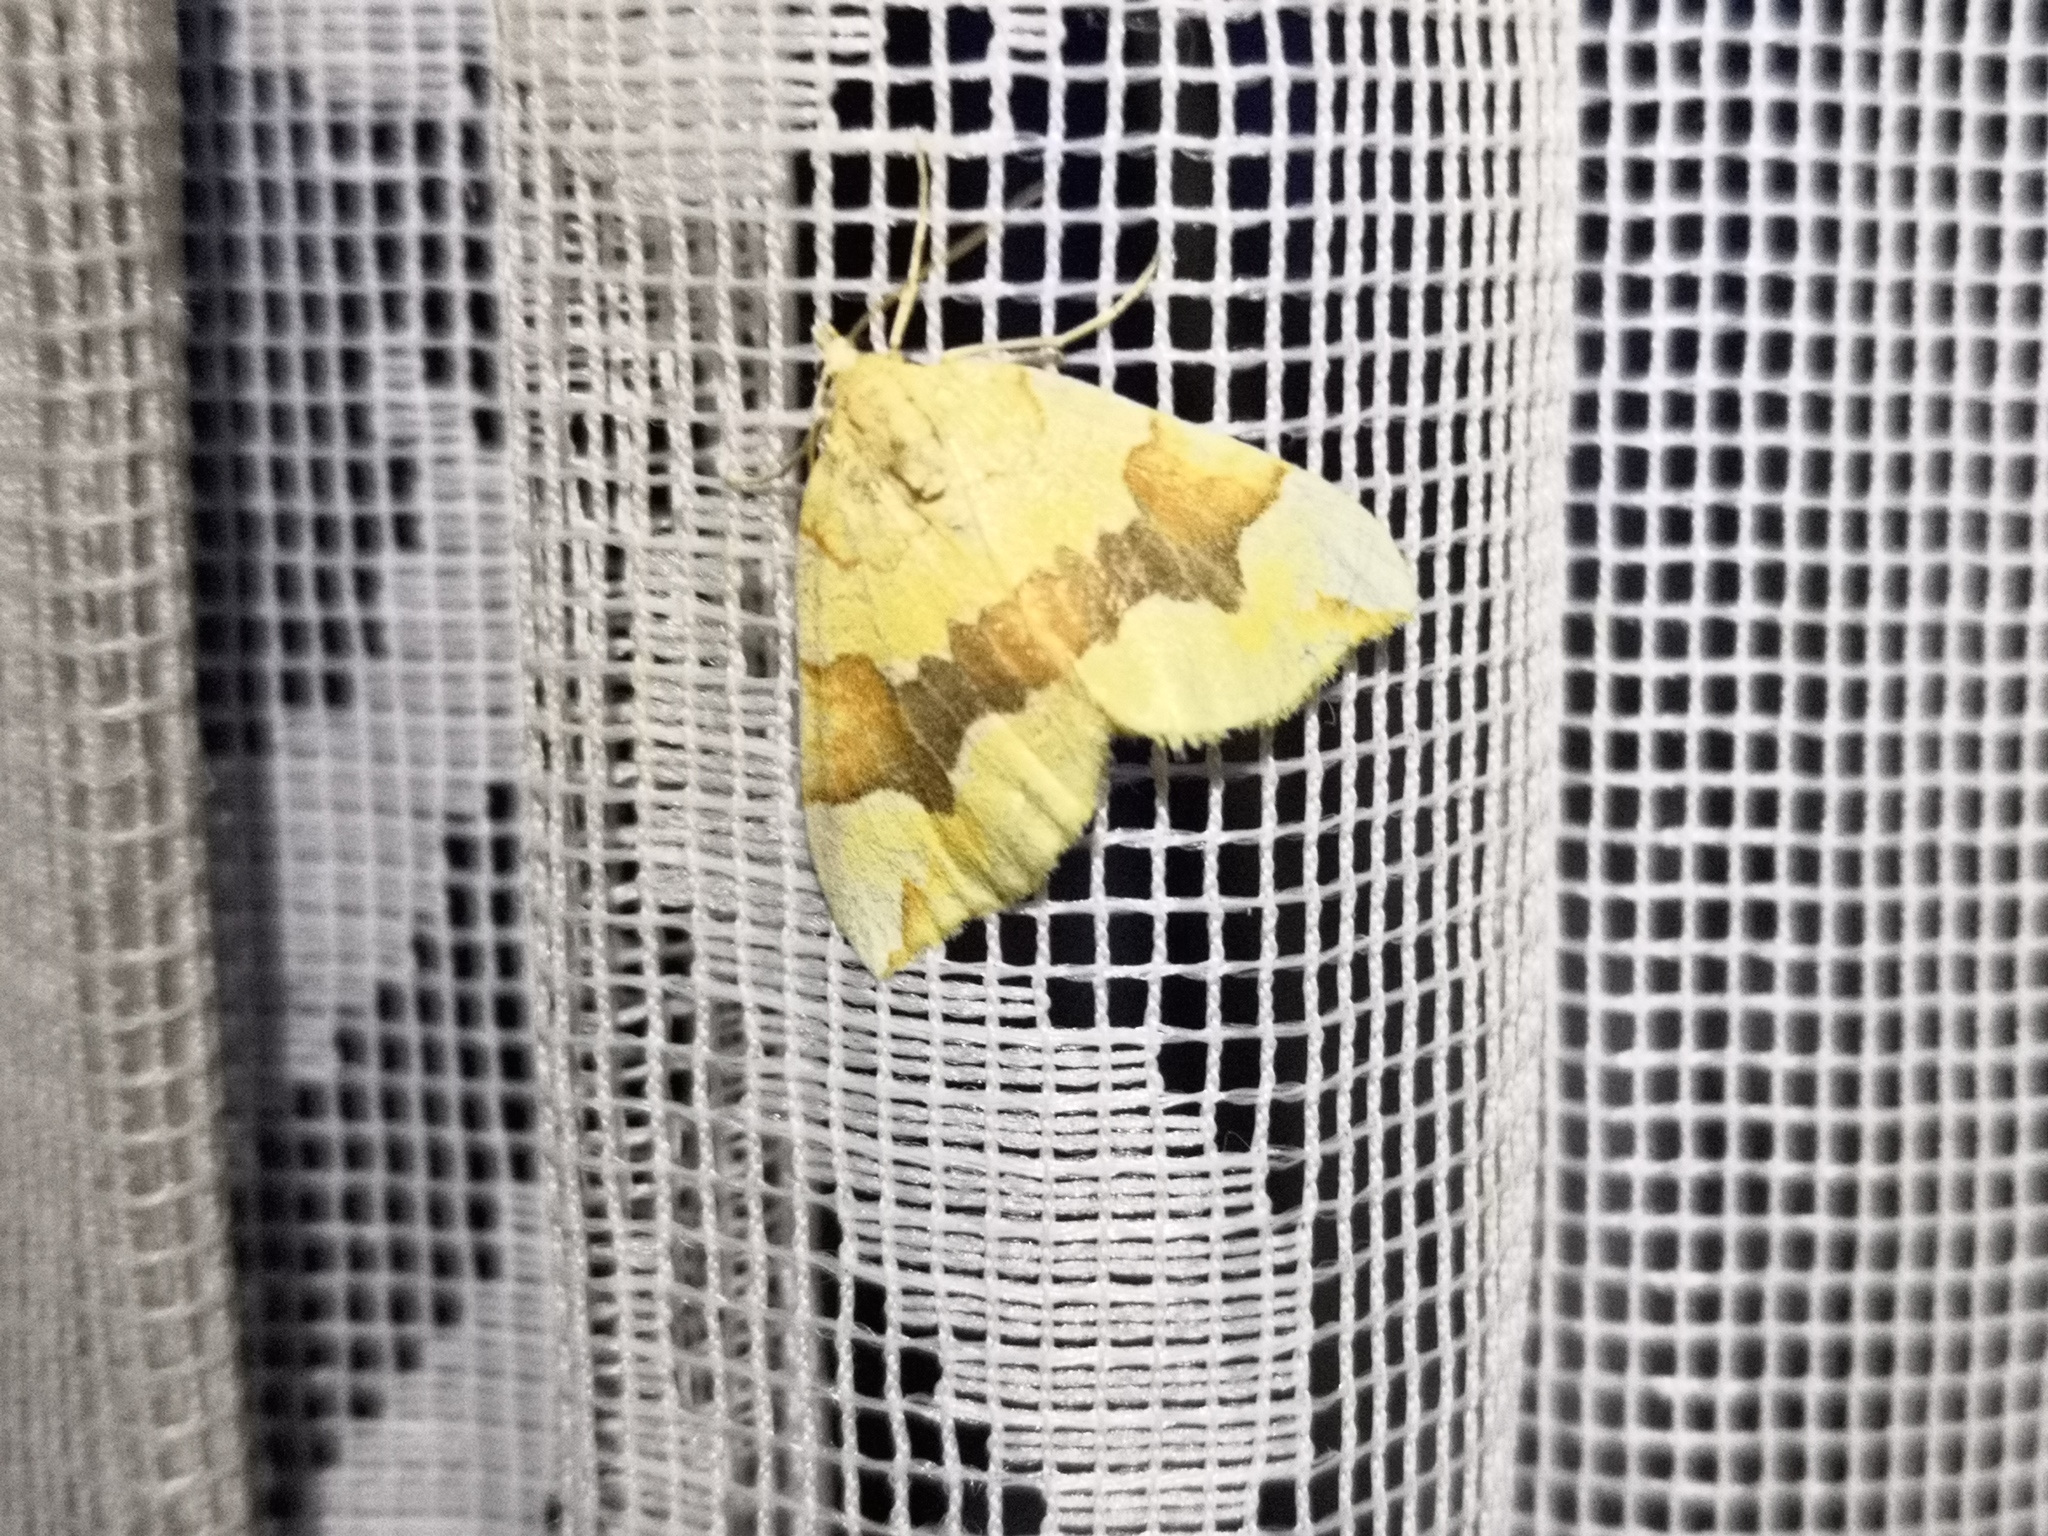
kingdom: Animalia
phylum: Arthropoda
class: Insecta
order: Lepidoptera
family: Geometridae
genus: Cidaria
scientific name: Cidaria fulvata
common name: Barred yellow
